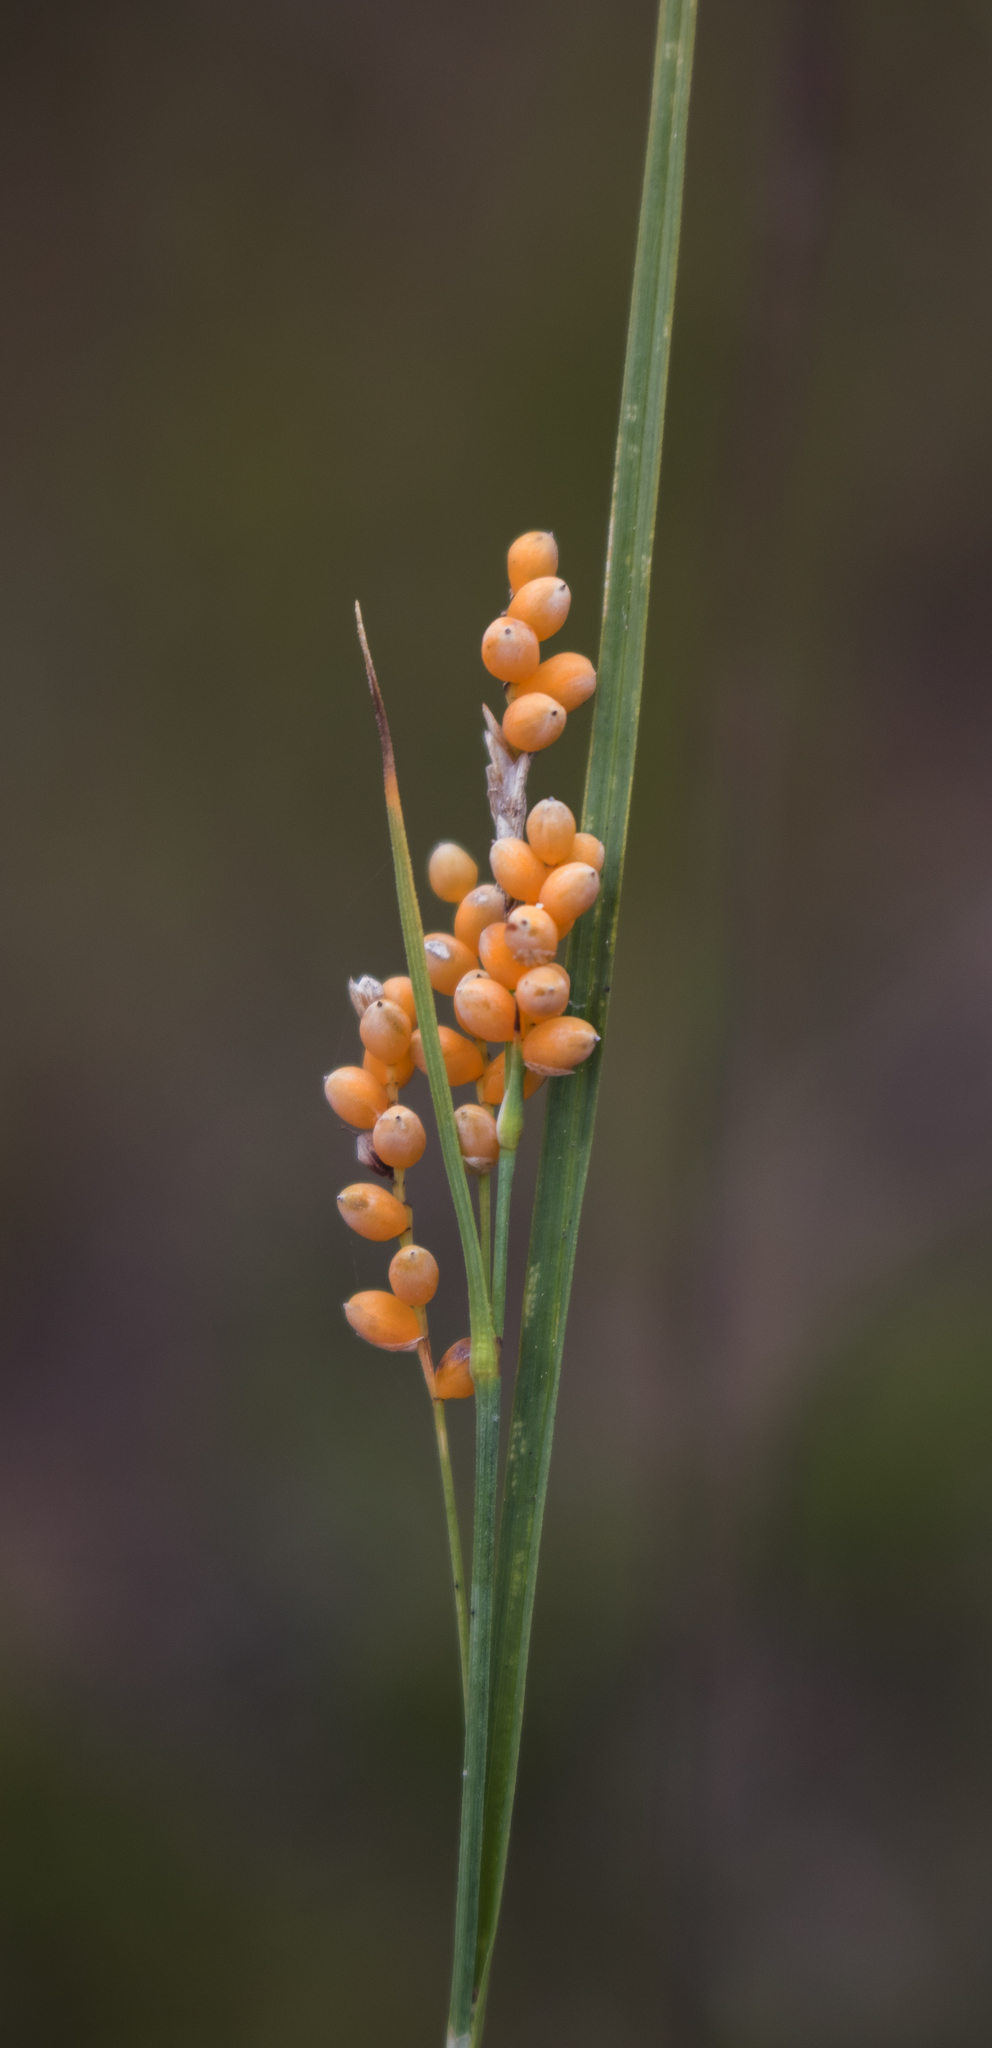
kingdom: Plantae
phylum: Tracheophyta
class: Liliopsida
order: Poales
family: Cyperaceae
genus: Carex
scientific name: Carex aurea
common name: Golden sedge
